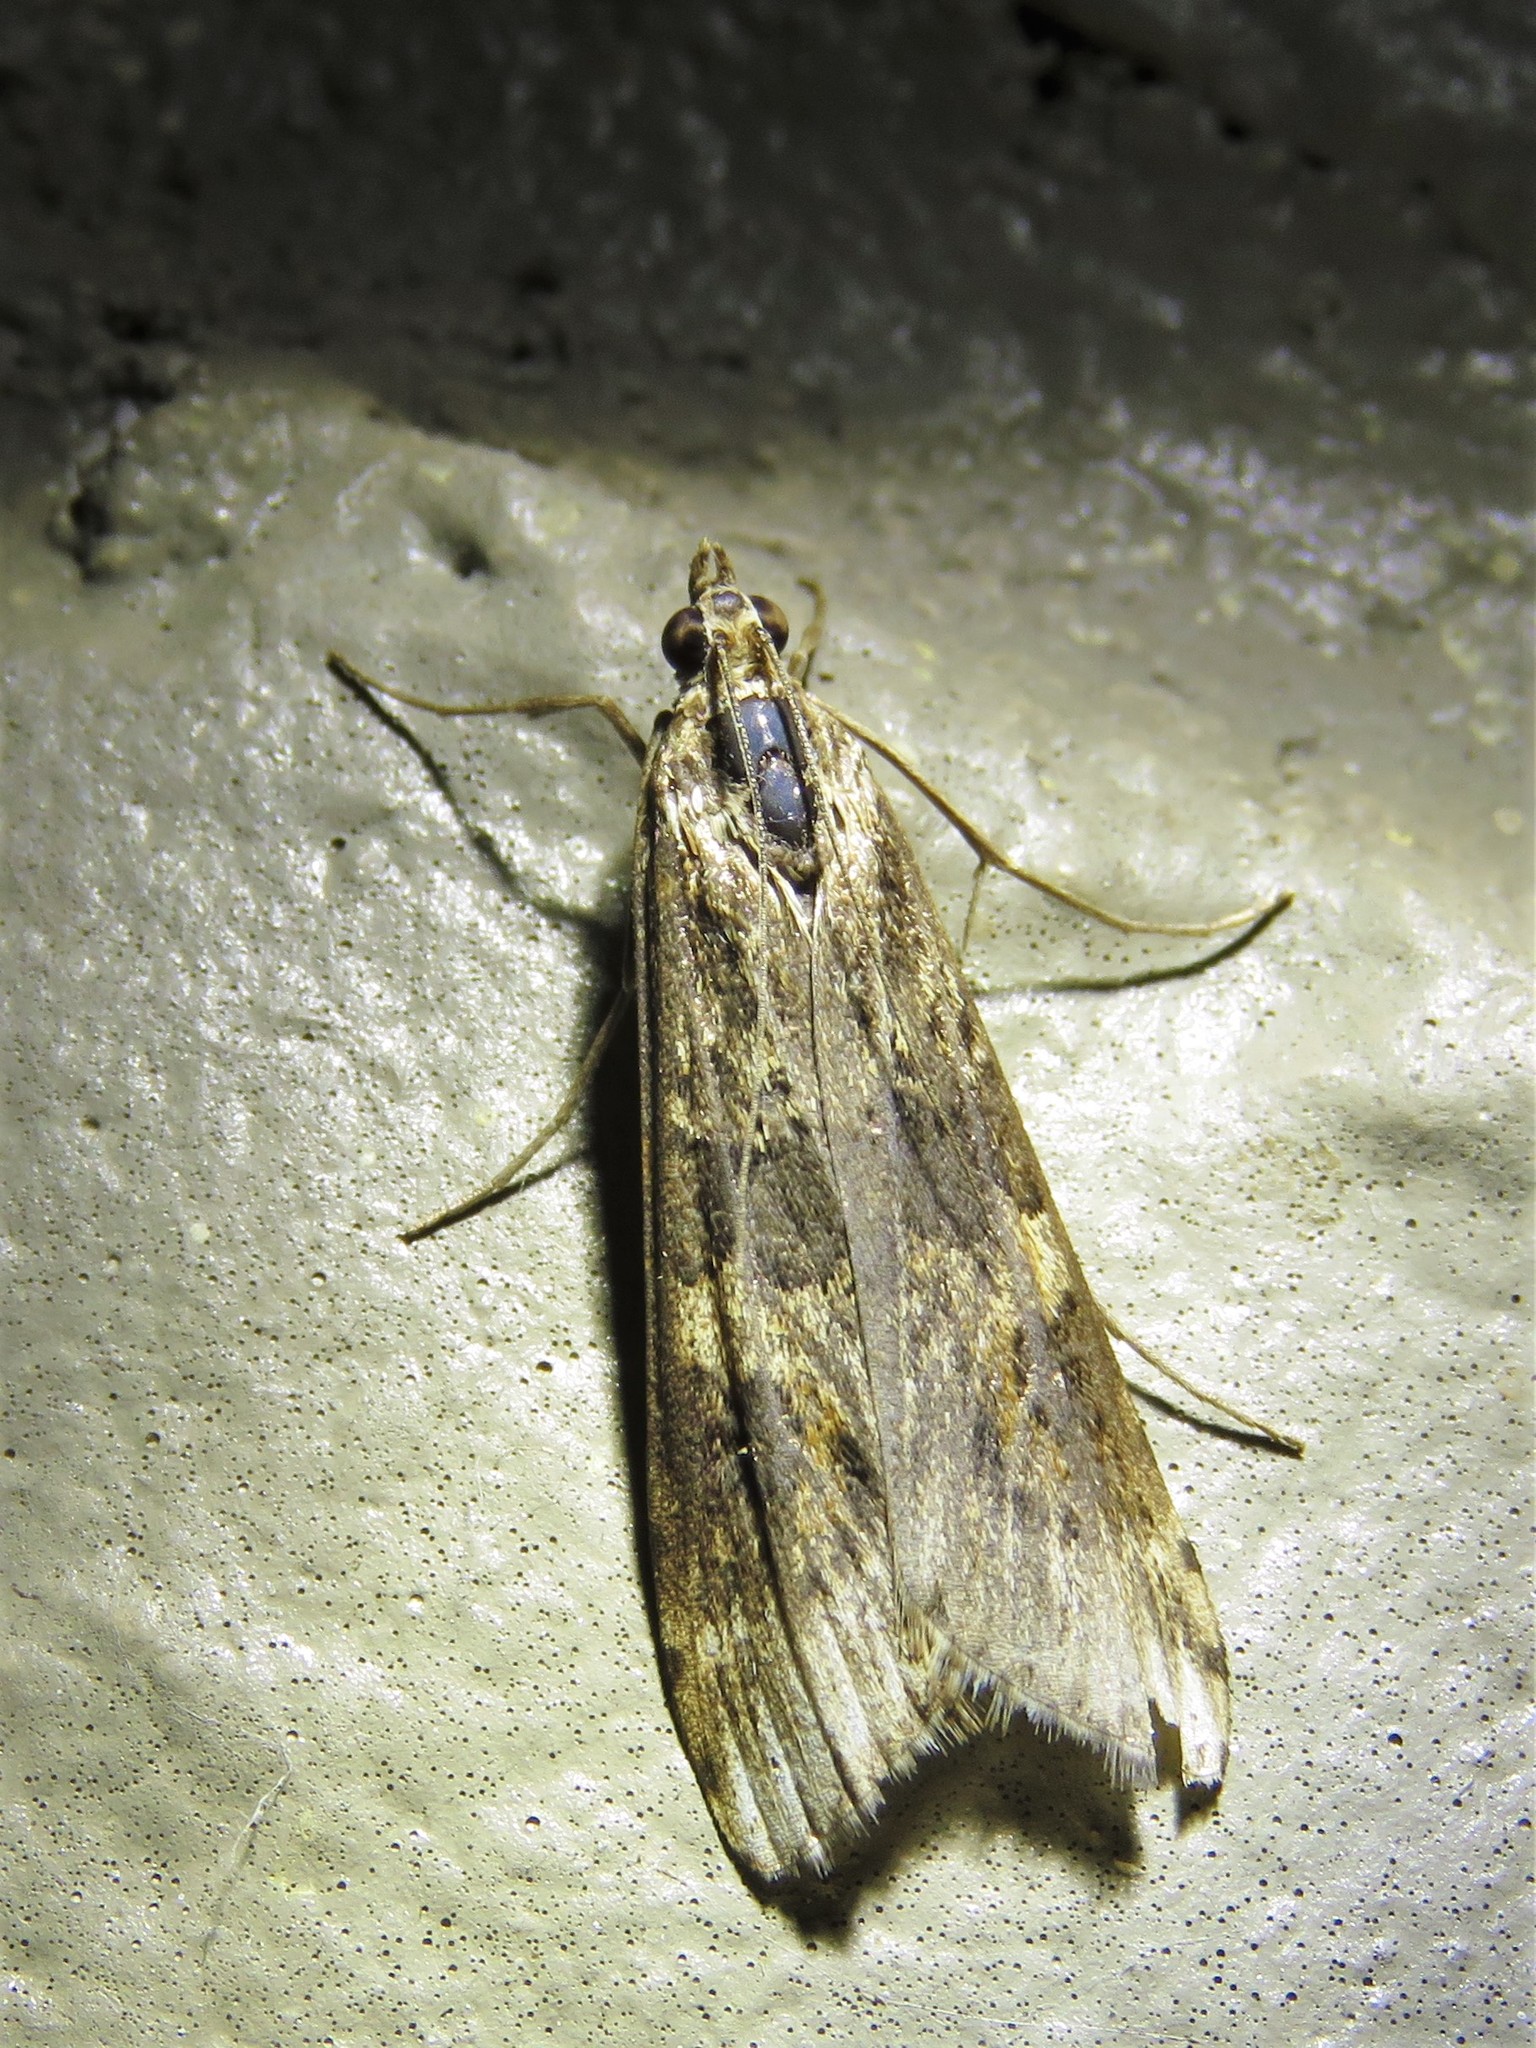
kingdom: Animalia
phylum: Arthropoda
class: Insecta
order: Lepidoptera
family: Crambidae
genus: Nomophila
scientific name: Nomophila nearctica
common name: American rush veneer
